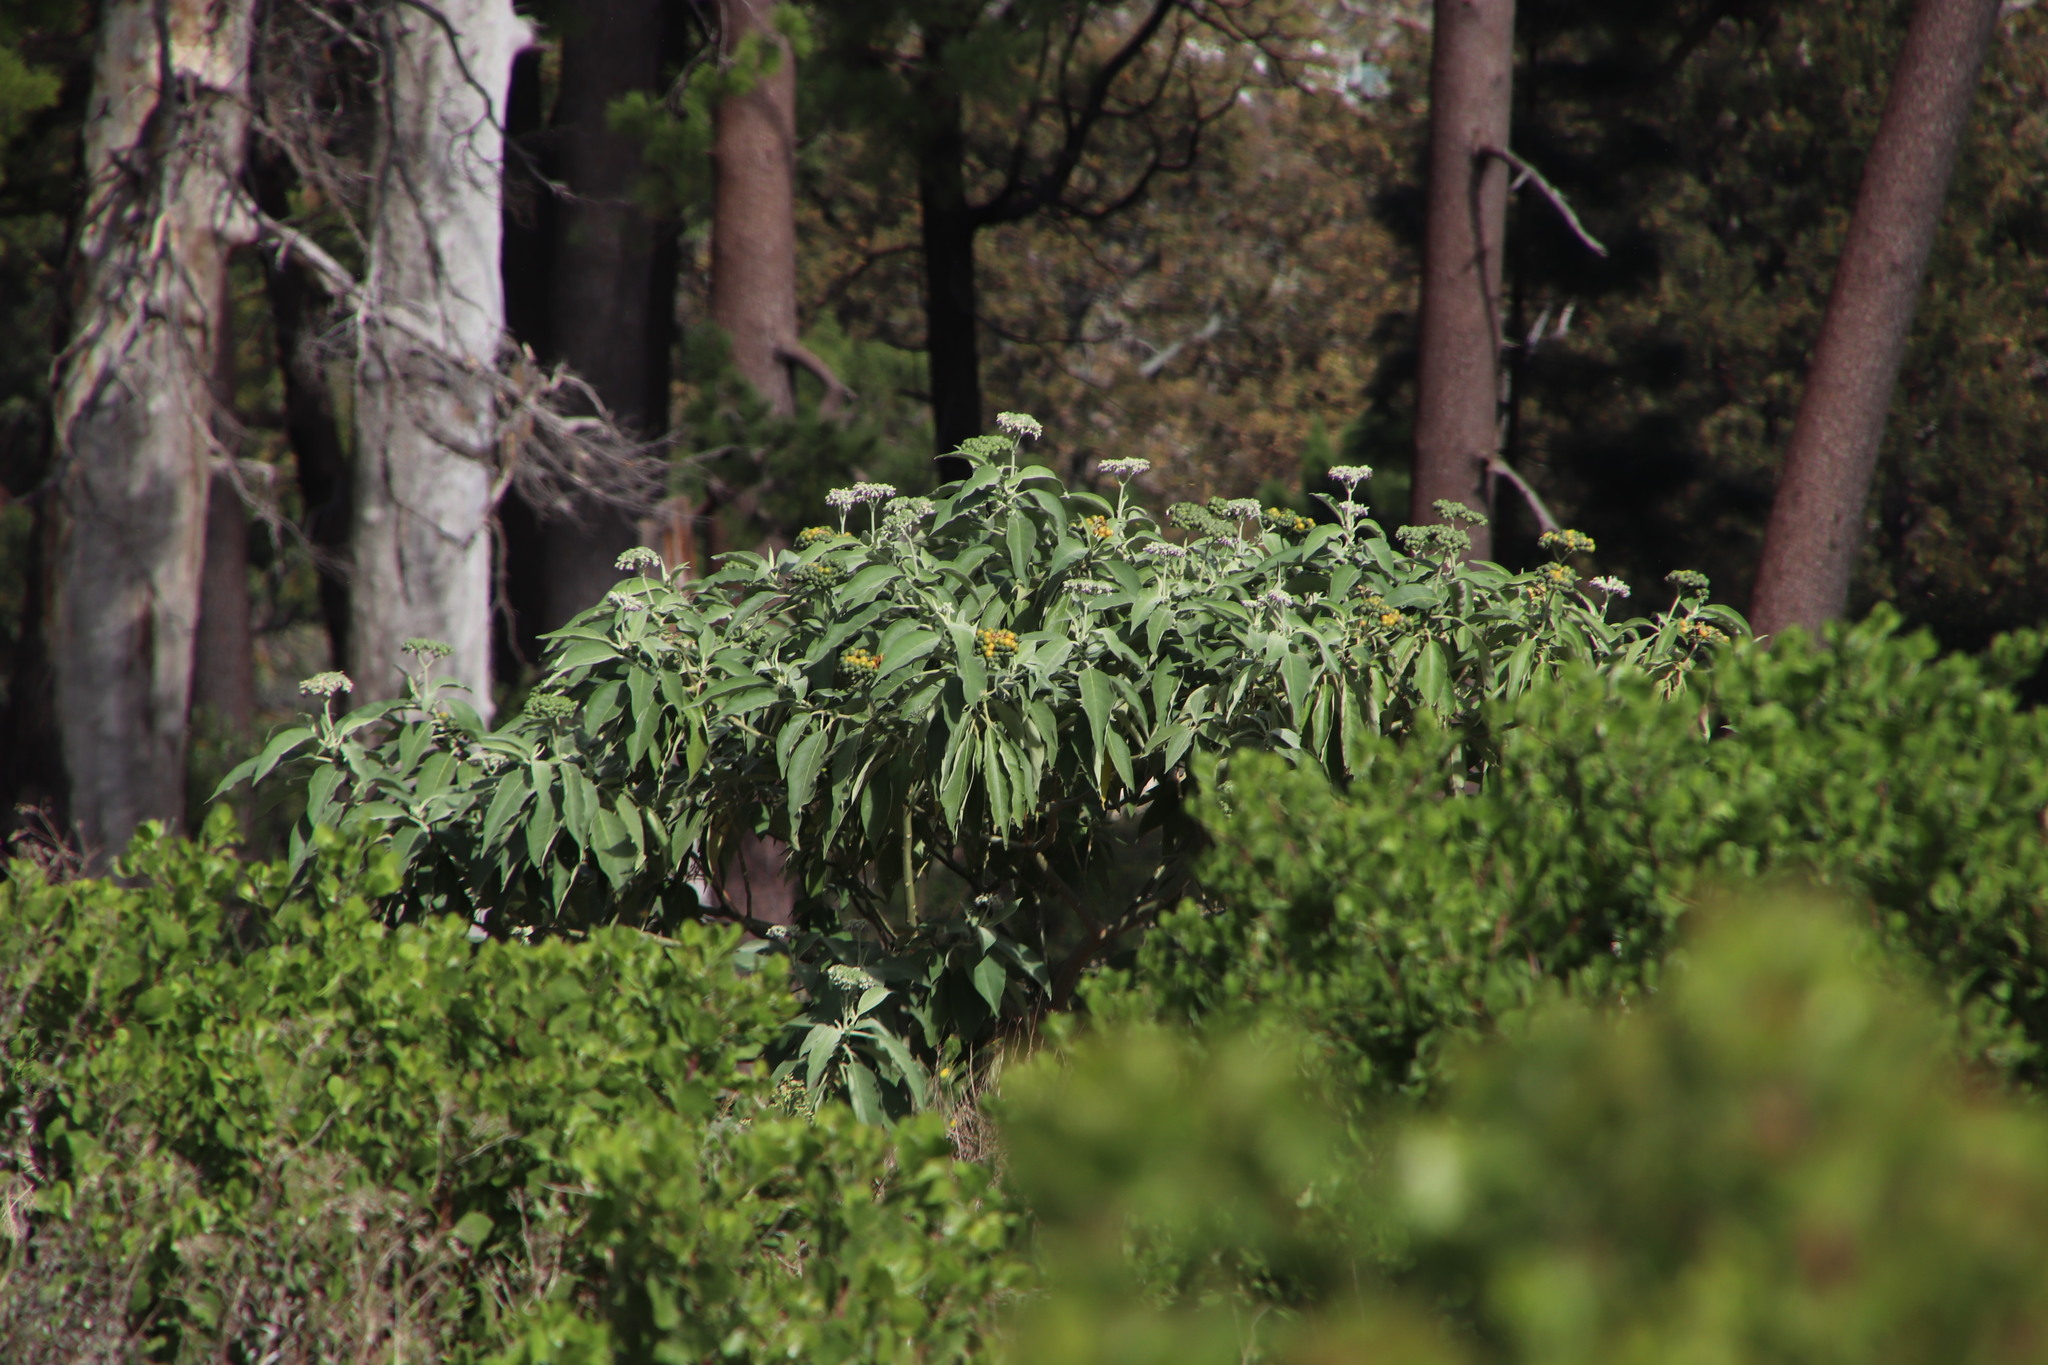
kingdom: Plantae
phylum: Tracheophyta
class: Magnoliopsida
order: Solanales
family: Solanaceae
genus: Solanum
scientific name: Solanum mauritianum
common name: Earleaf nightshade
